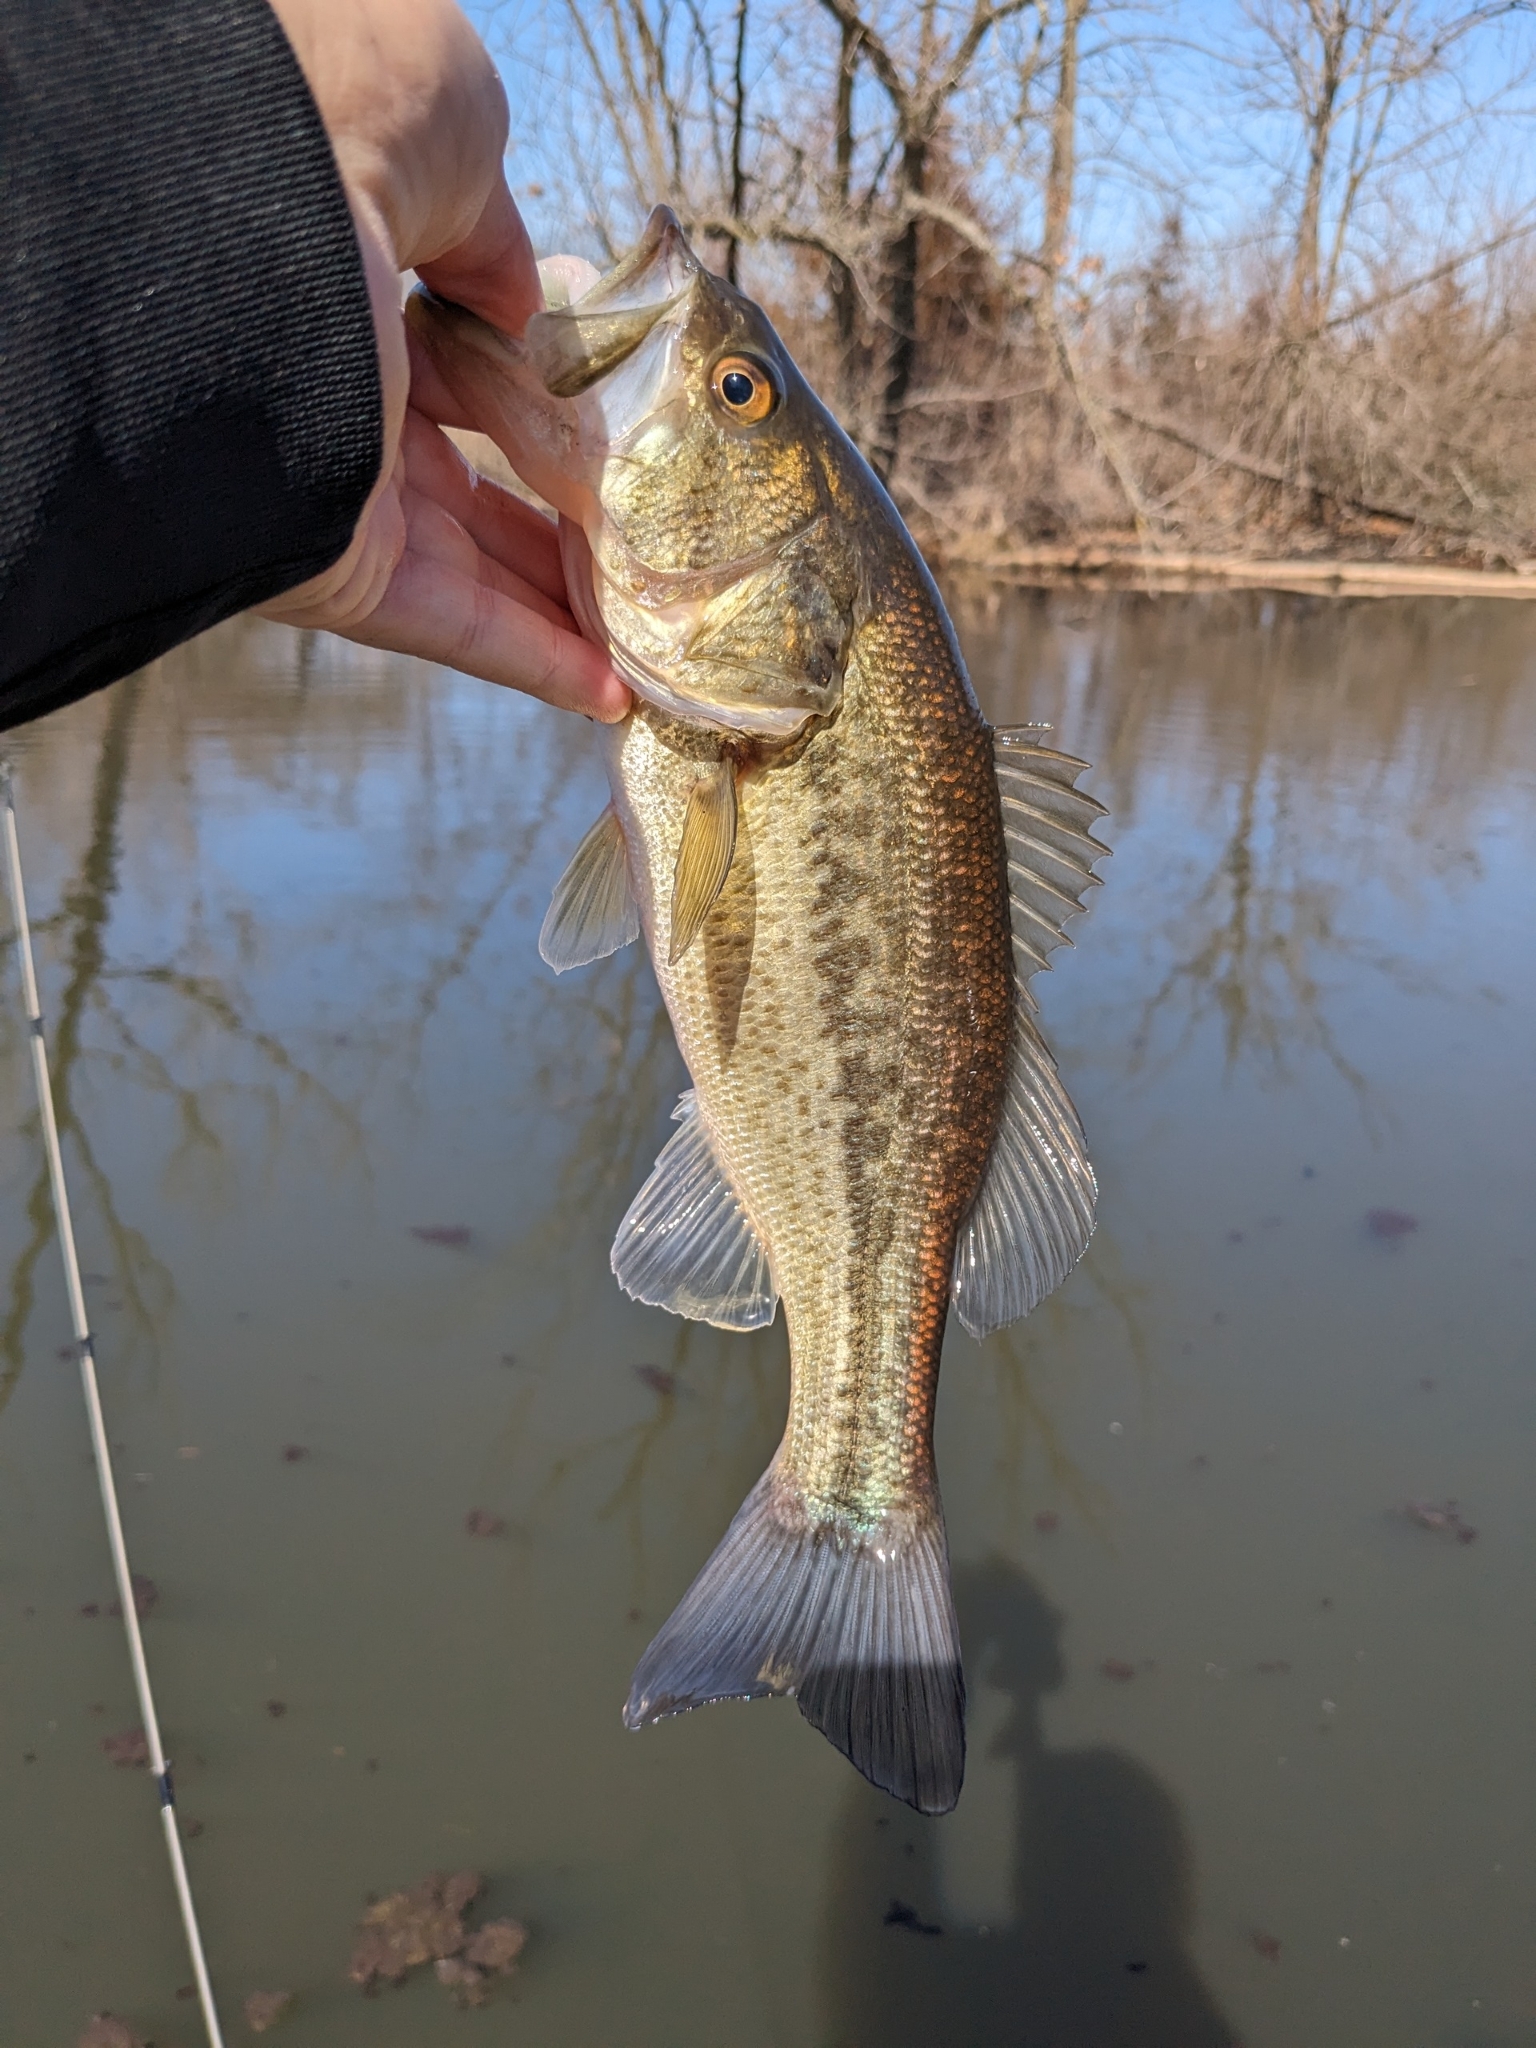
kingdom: Animalia
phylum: Chordata
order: Perciformes
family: Centrarchidae
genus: Micropterus
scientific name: Micropterus
